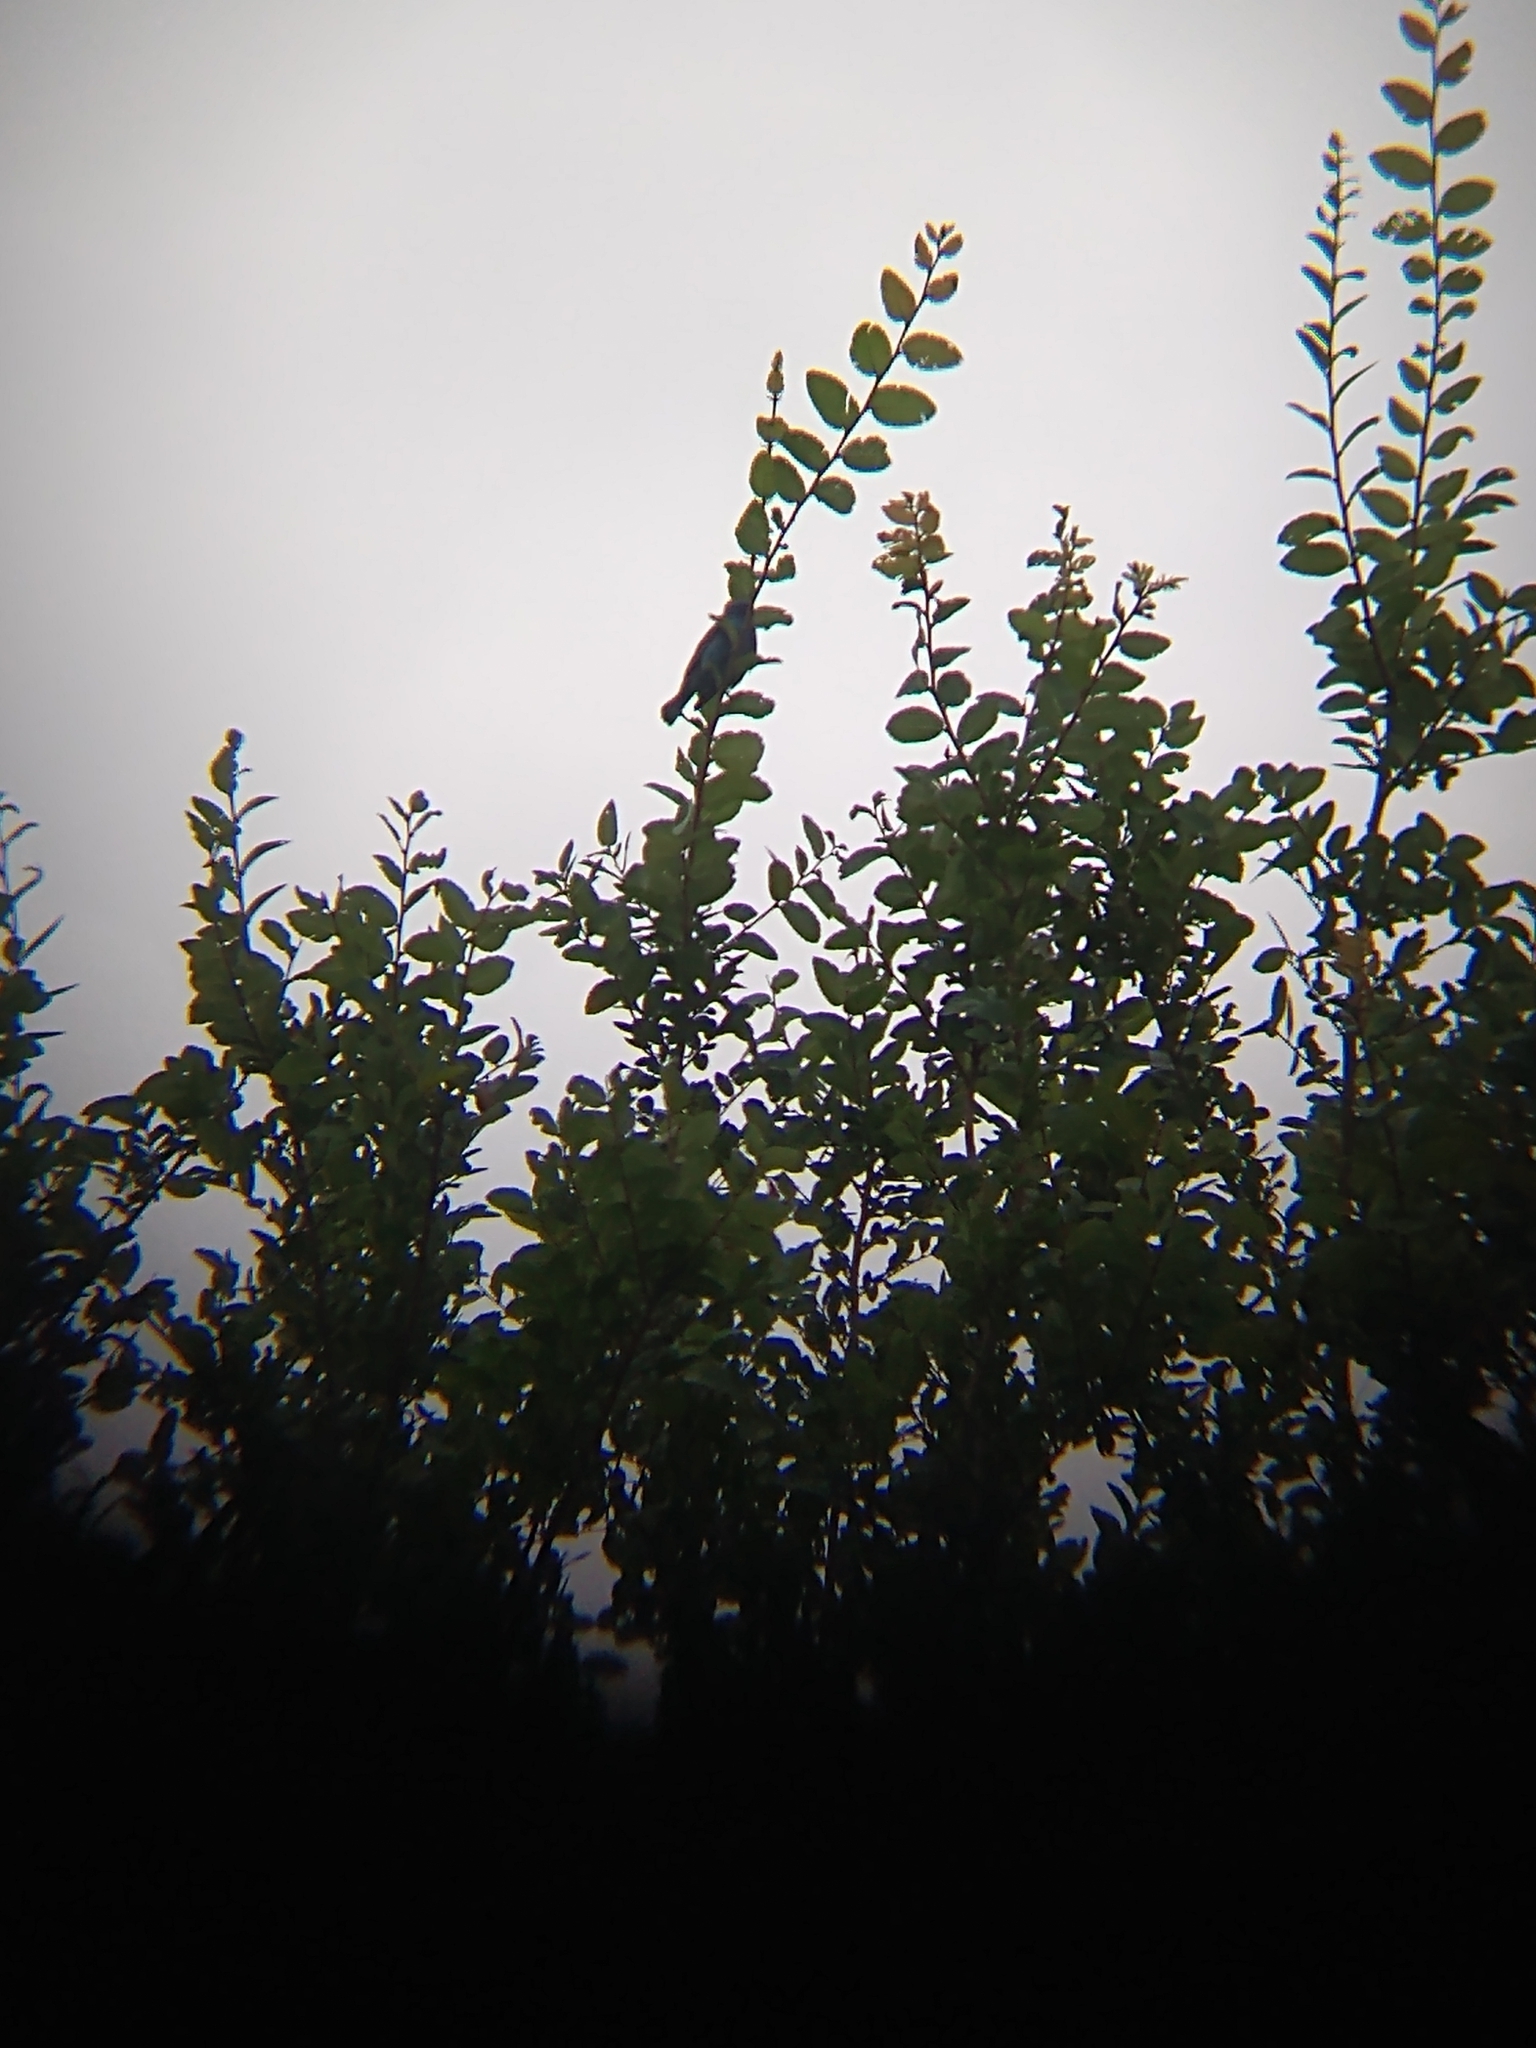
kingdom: Animalia
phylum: Chordata
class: Aves
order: Passeriformes
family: Cardinalidae
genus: Passerina
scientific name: Passerina cyanea
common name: Indigo bunting
